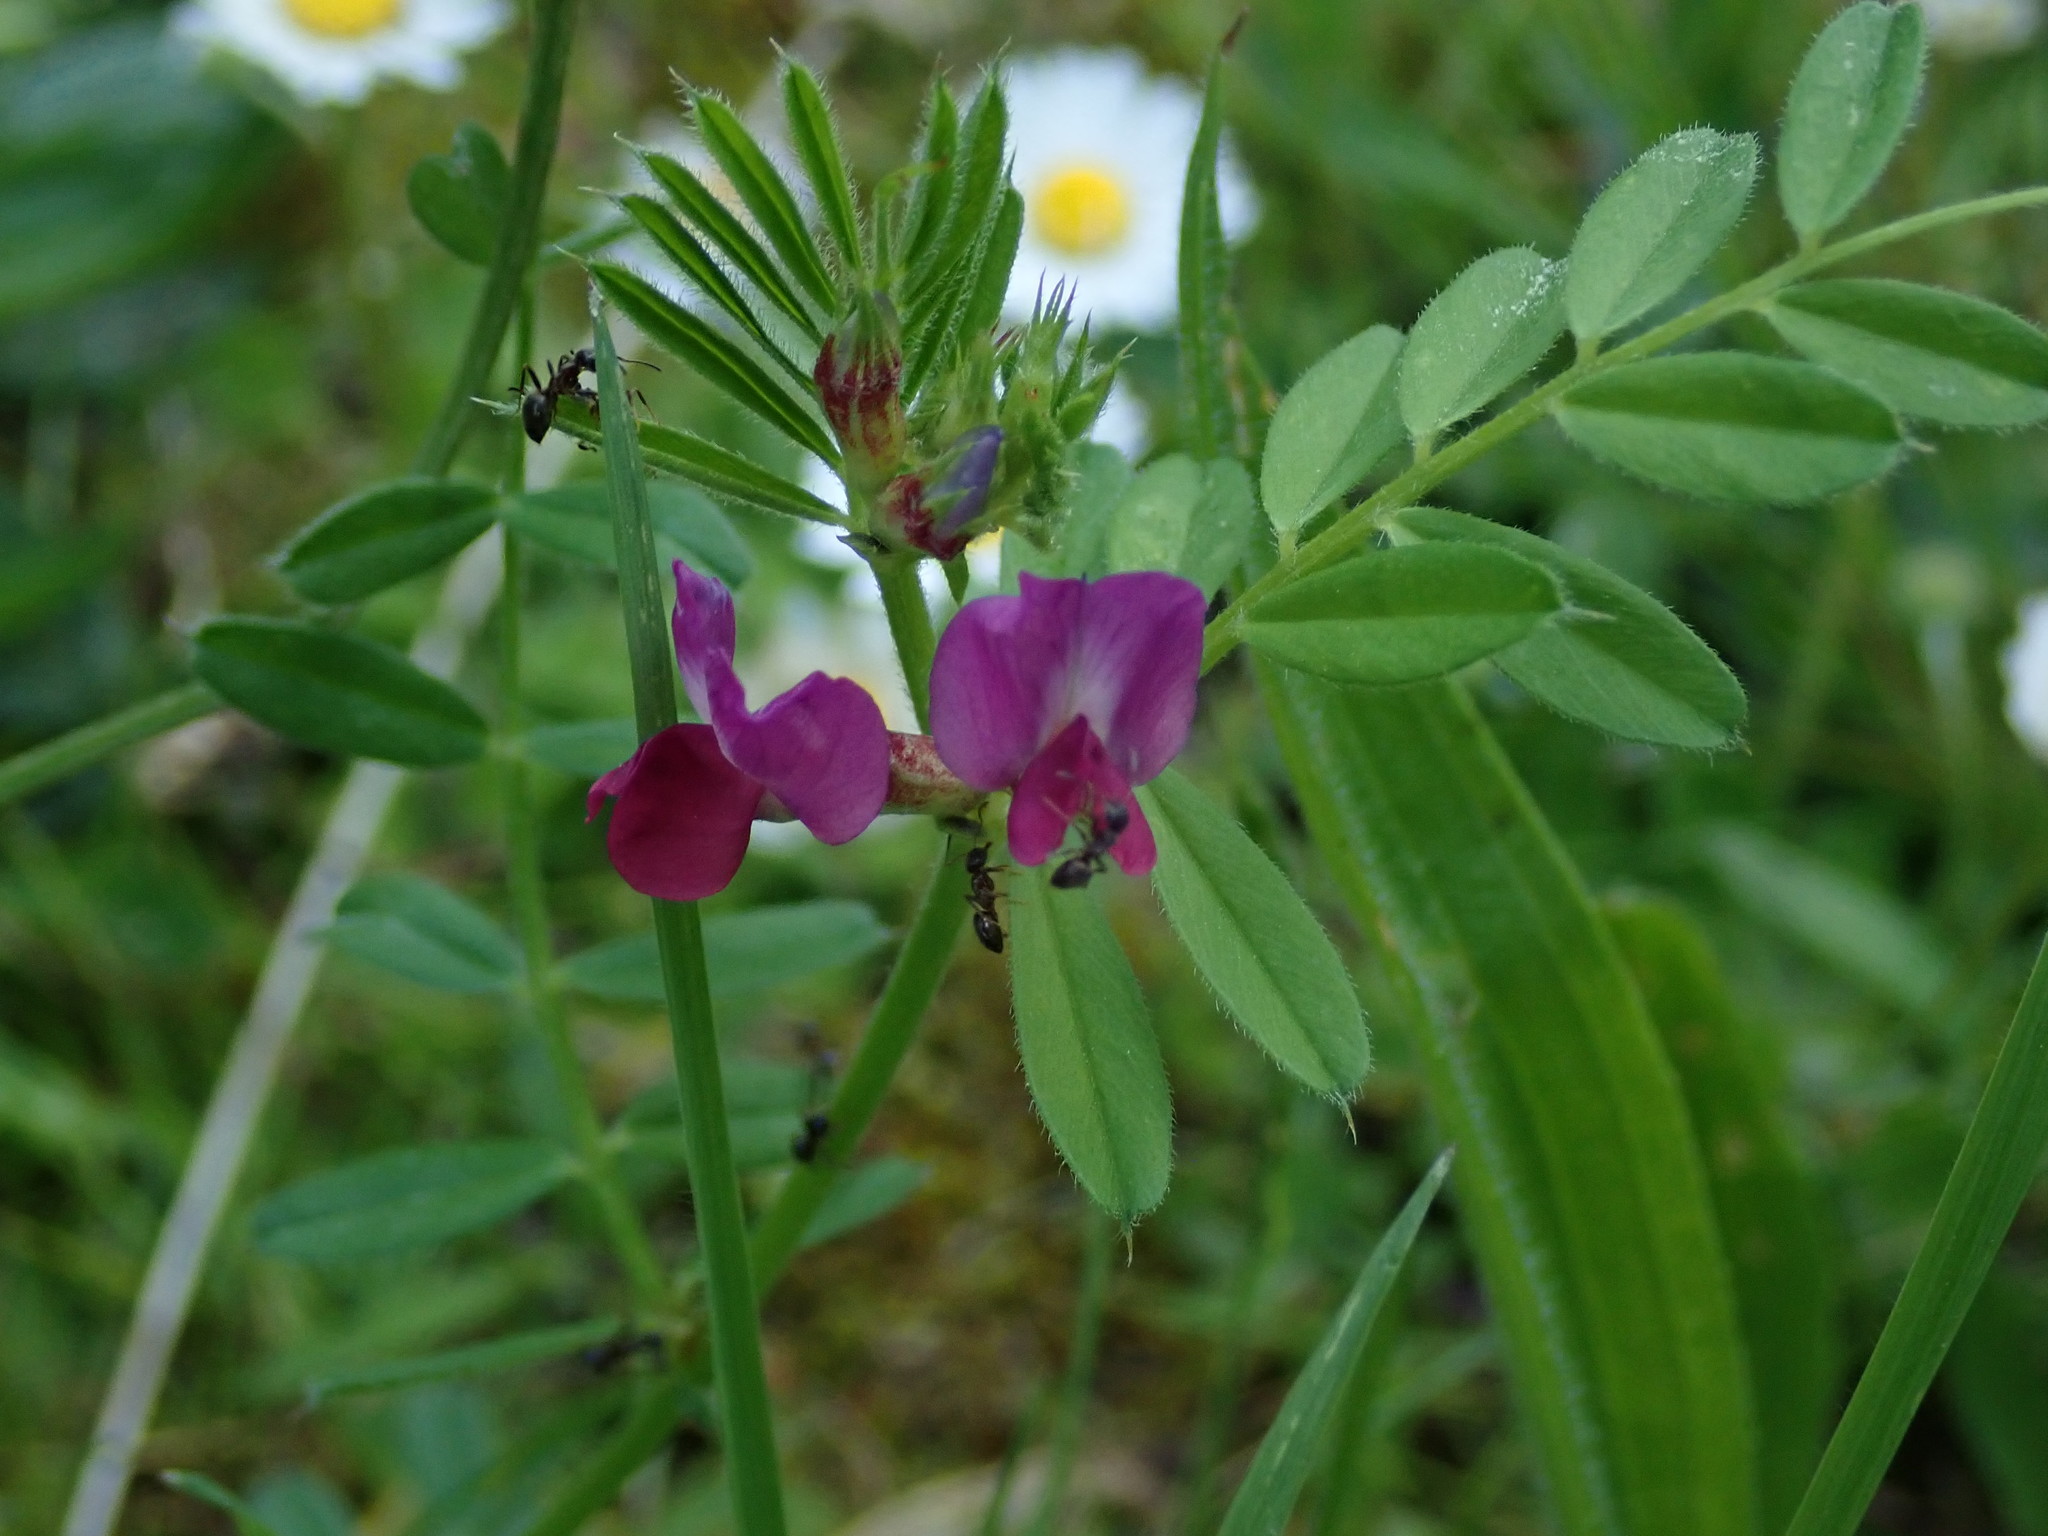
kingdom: Plantae
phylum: Tracheophyta
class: Magnoliopsida
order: Fabales
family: Fabaceae
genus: Vicia
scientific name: Vicia sativa
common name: Garden vetch
